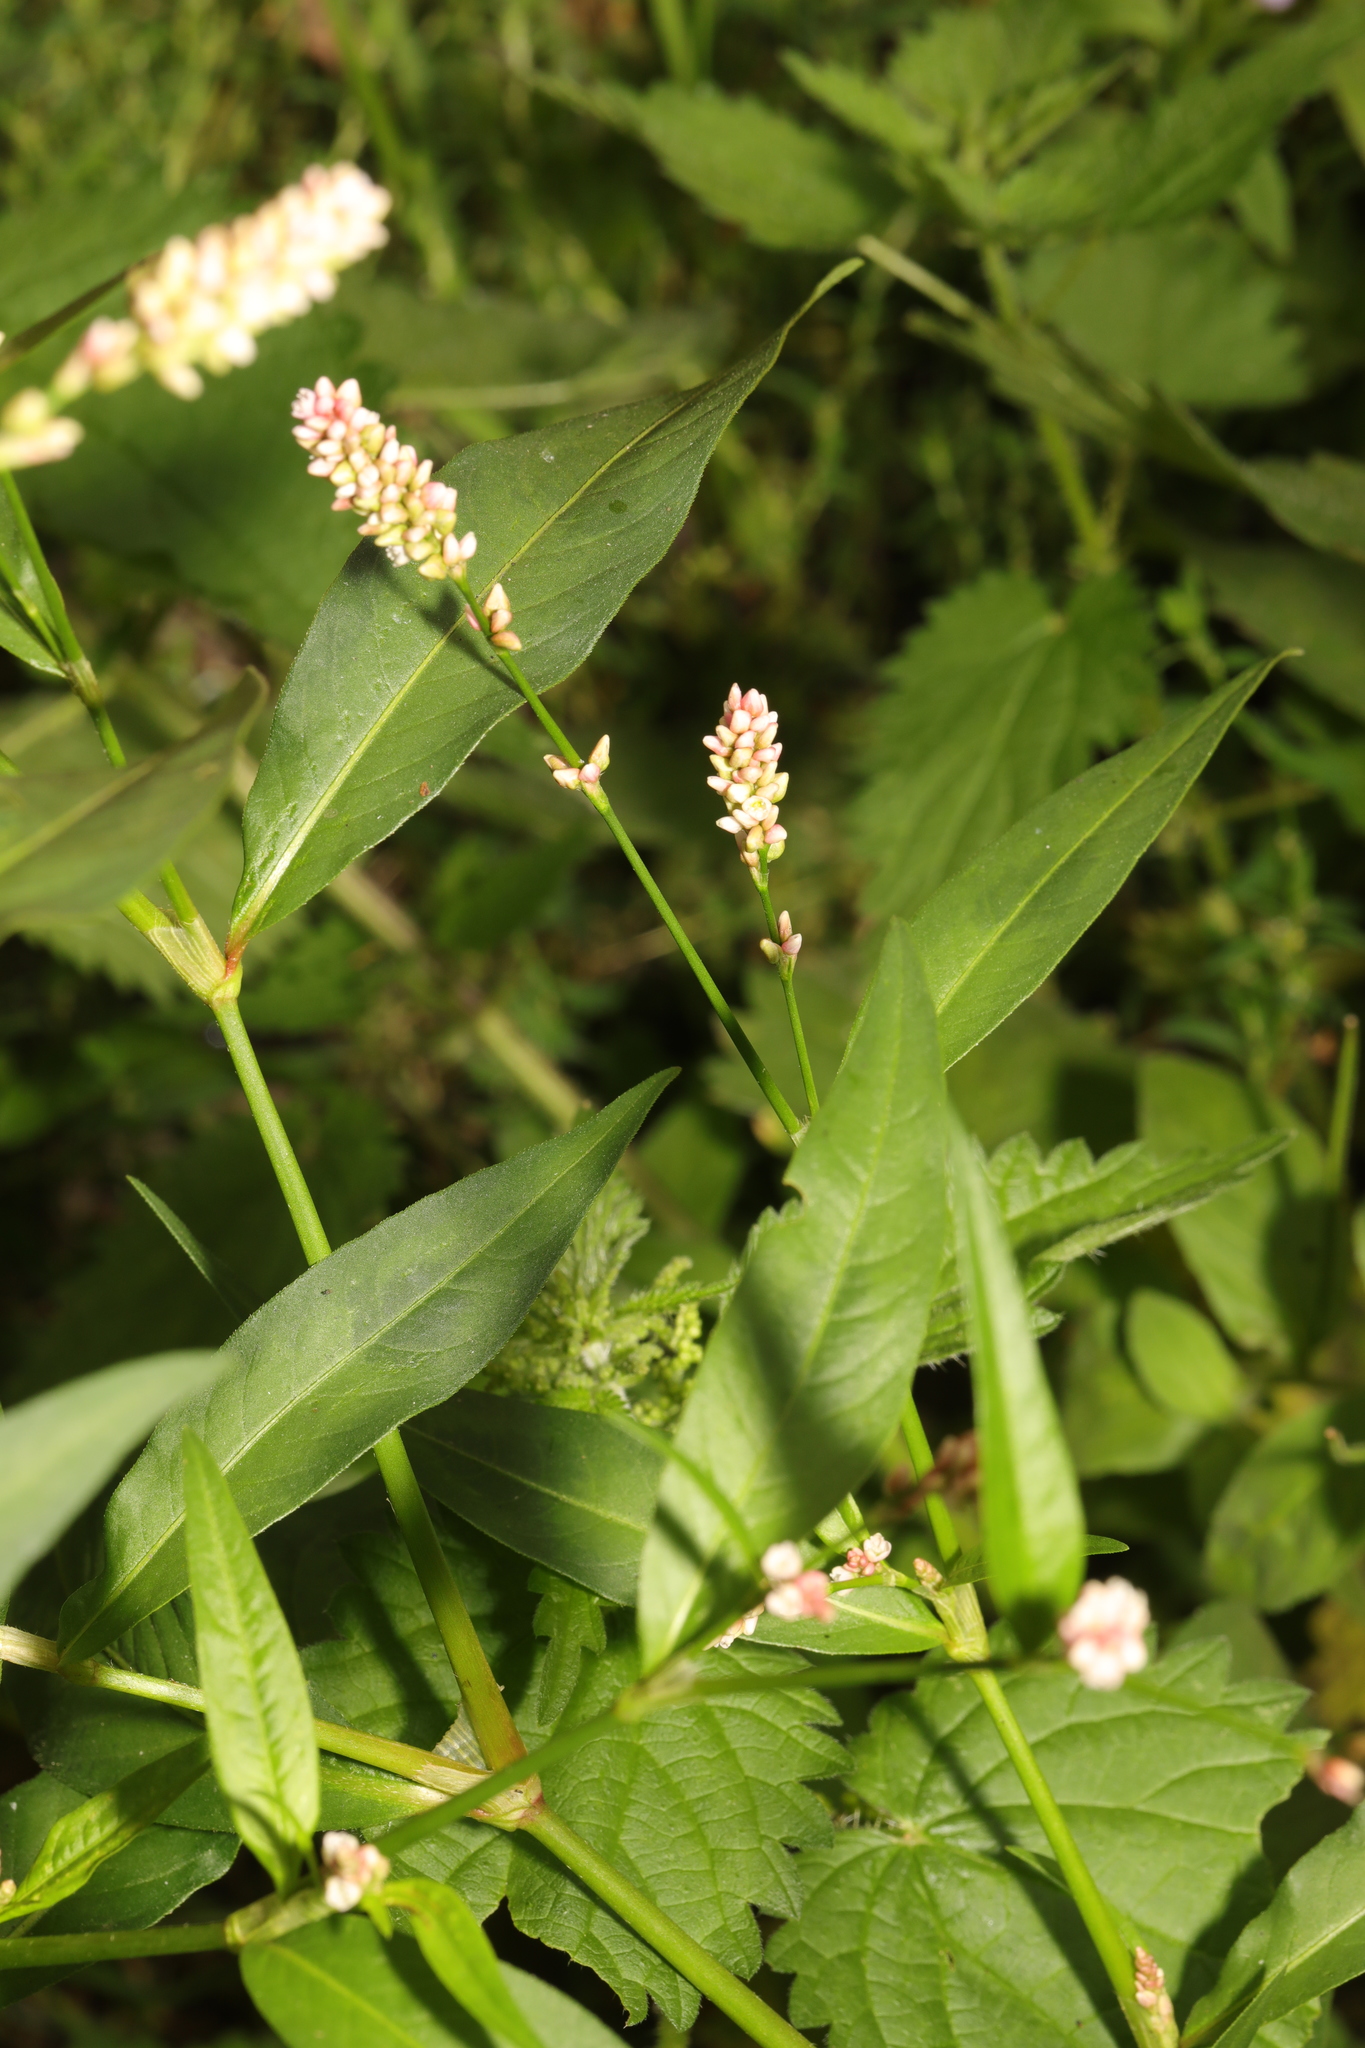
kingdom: Plantae
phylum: Tracheophyta
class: Magnoliopsida
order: Caryophyllales
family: Polygonaceae
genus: Persicaria
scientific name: Persicaria maculosa
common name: Redshank
